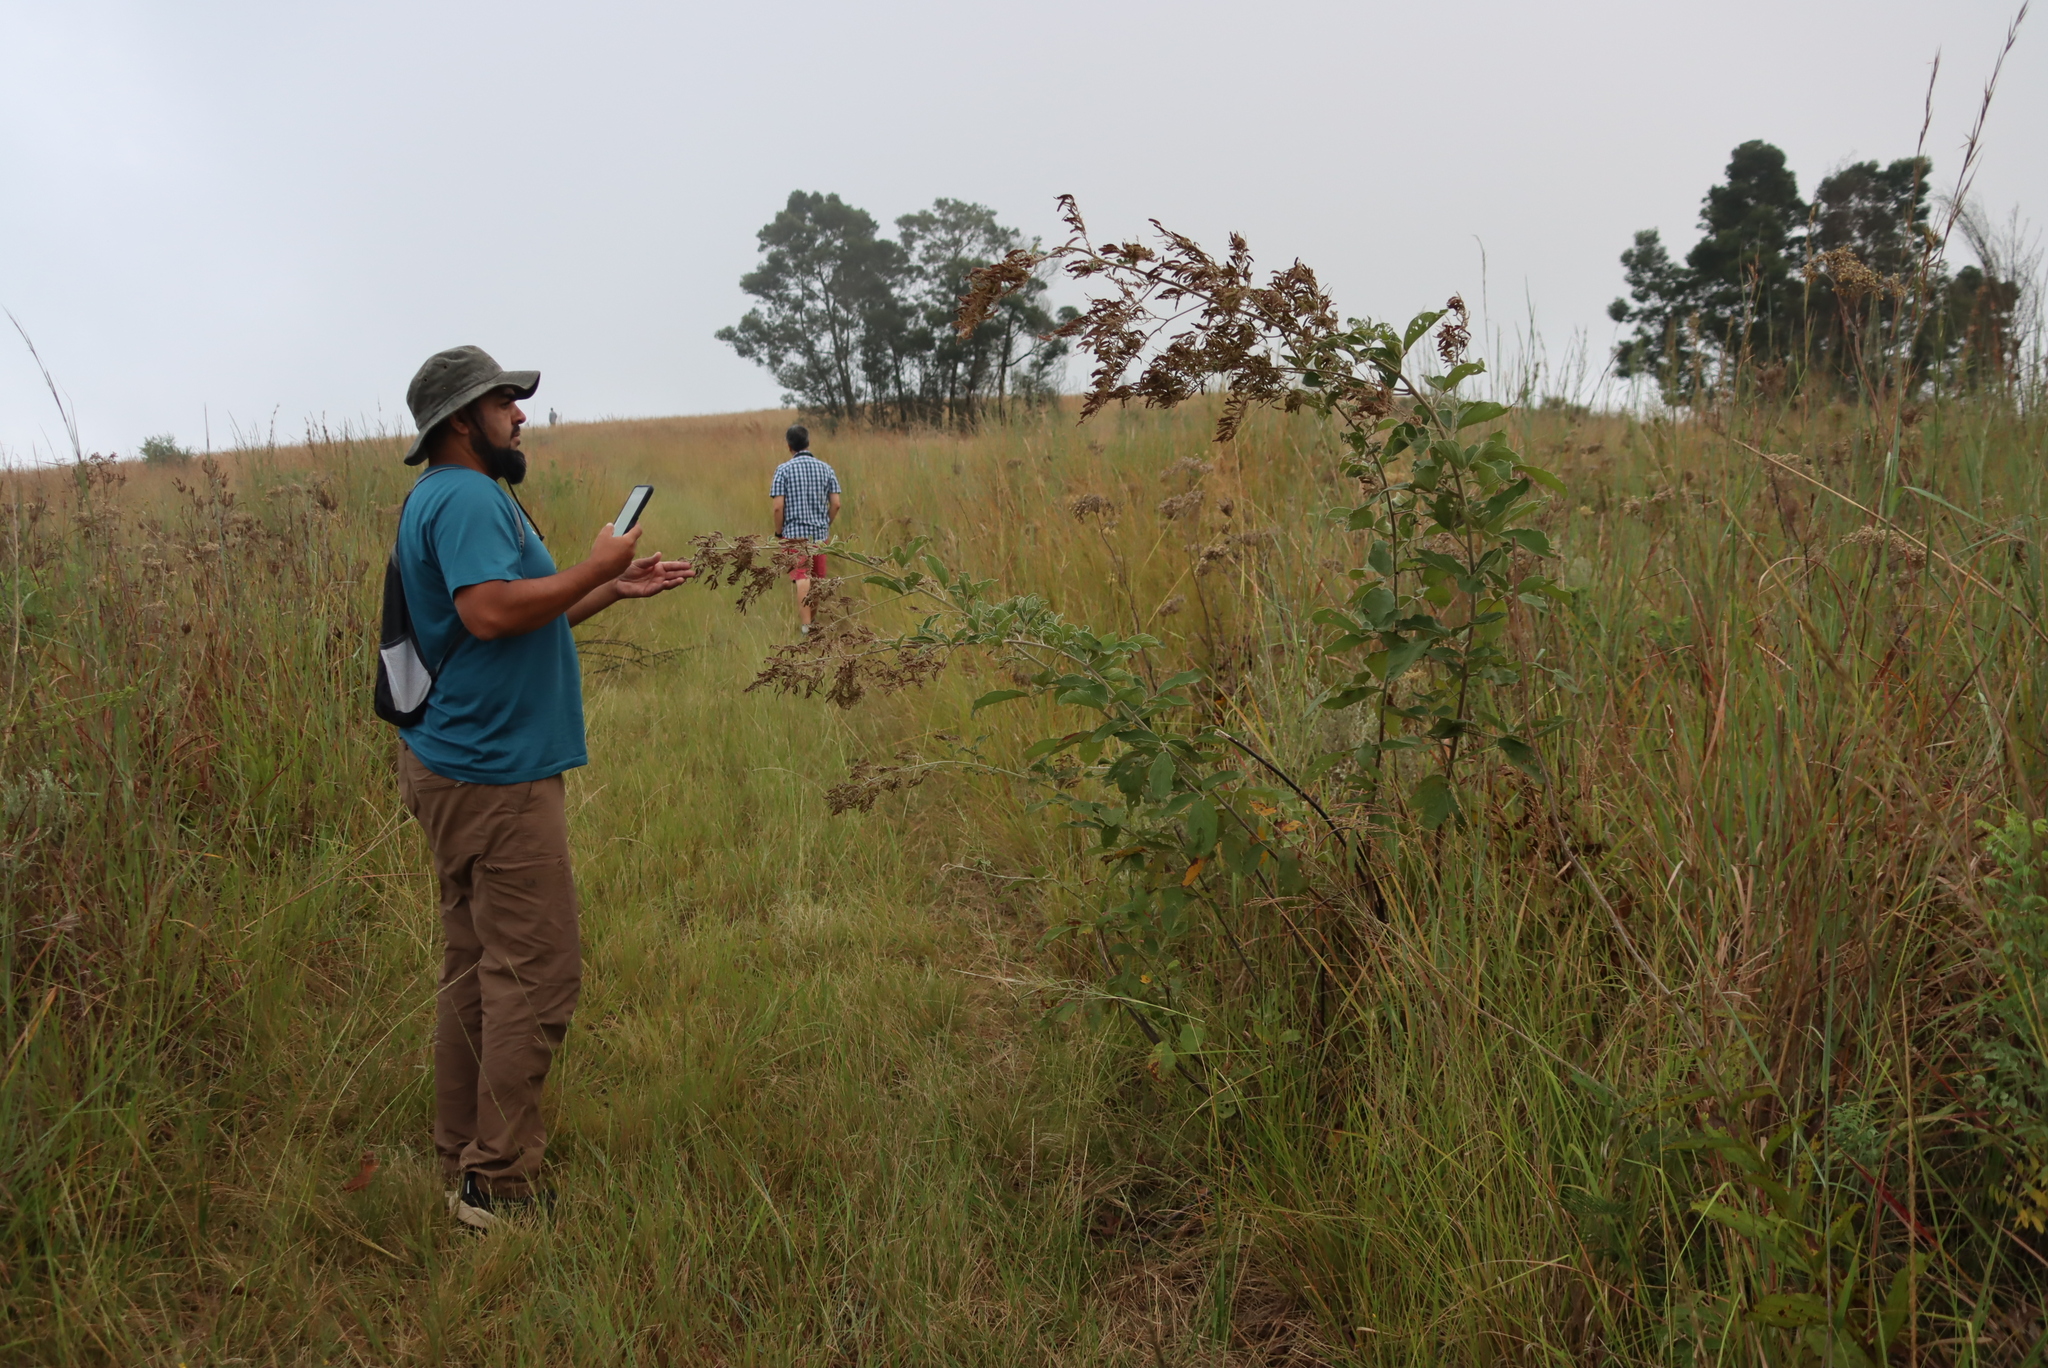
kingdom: Plantae
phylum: Tracheophyta
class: Magnoliopsida
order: Fabales
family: Fabaceae
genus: Pseudarthria
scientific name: Pseudarthria hookeri
